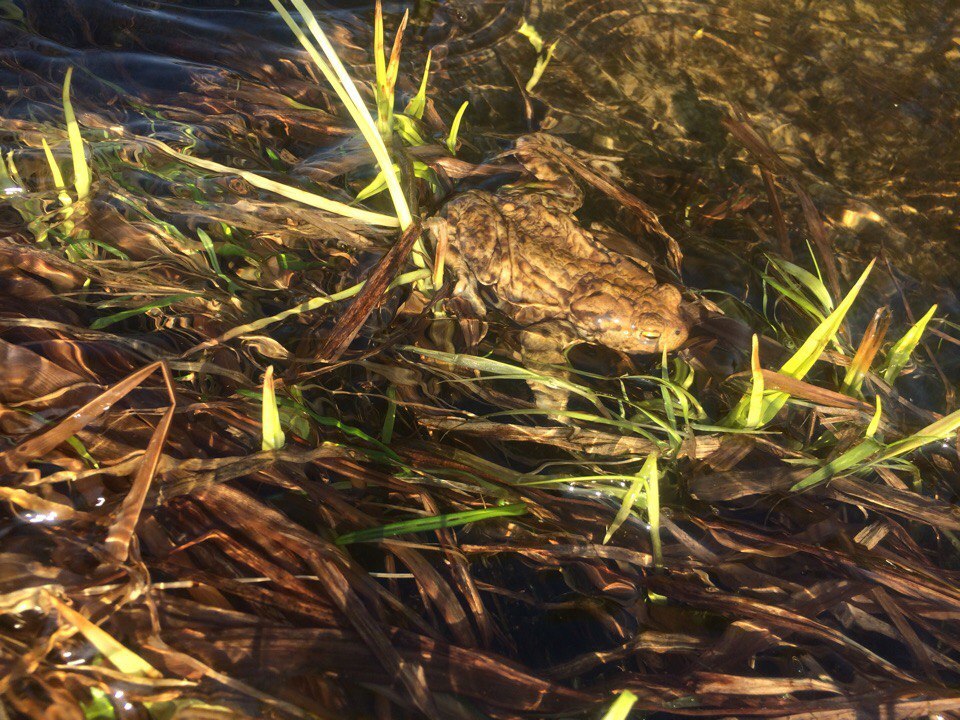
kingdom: Animalia
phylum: Chordata
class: Amphibia
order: Anura
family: Bufonidae
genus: Bufo
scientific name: Bufo bufo
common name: Common toad
